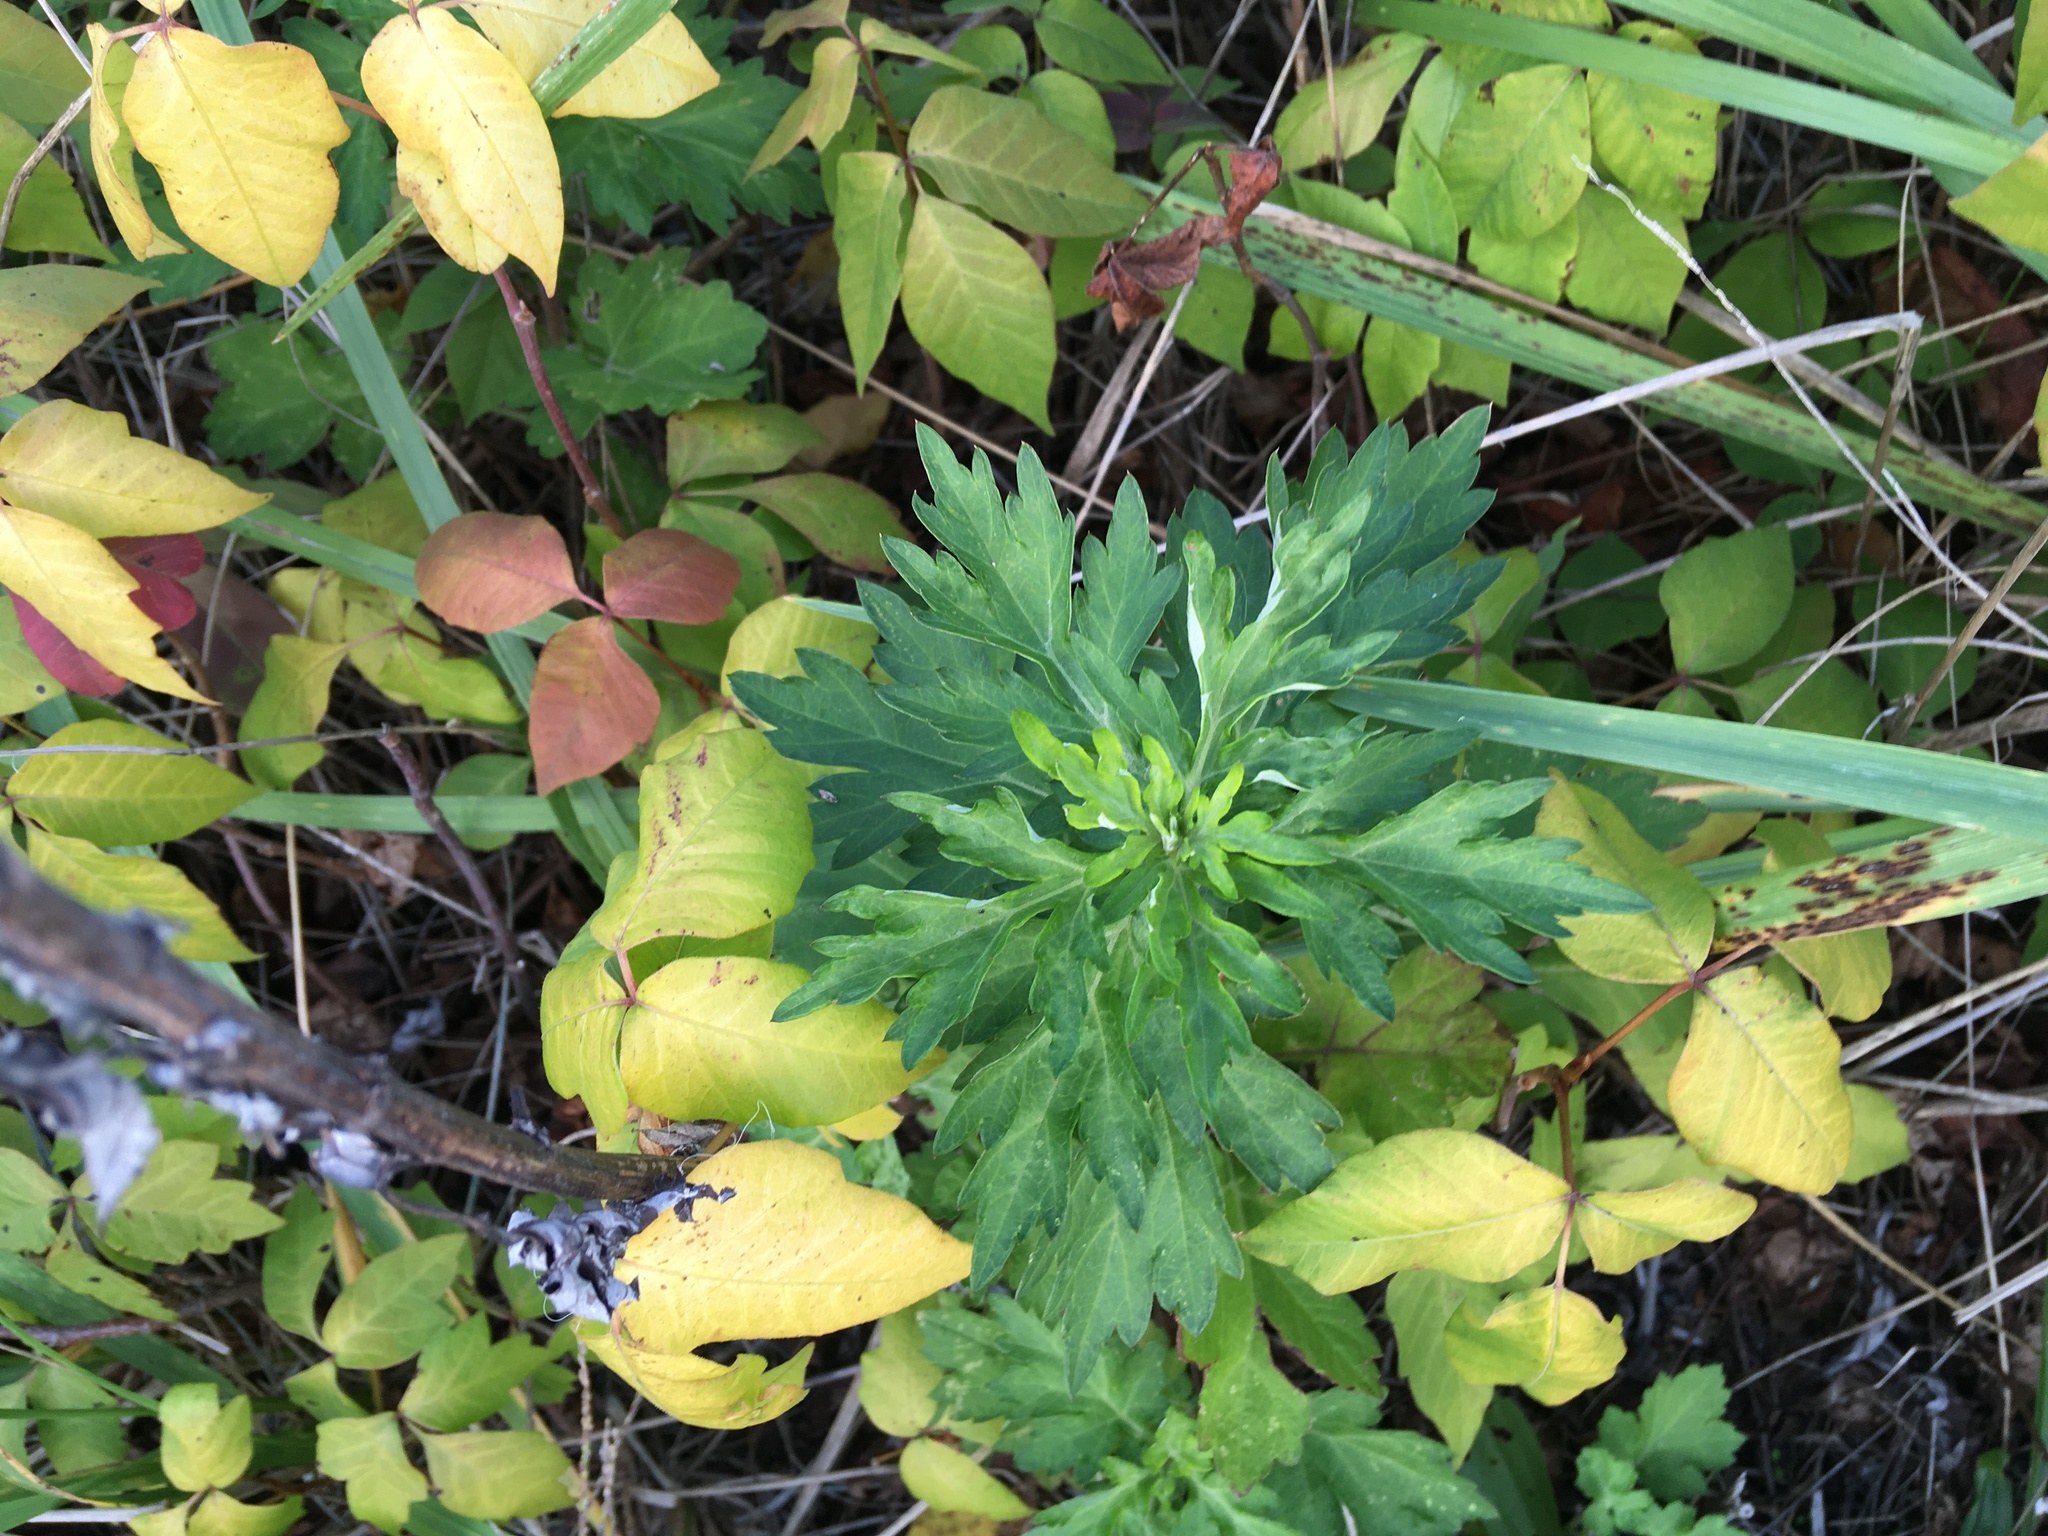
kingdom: Plantae
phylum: Tracheophyta
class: Magnoliopsida
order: Asterales
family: Asteraceae
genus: Artemisia
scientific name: Artemisia vulgaris
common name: Mugwort
